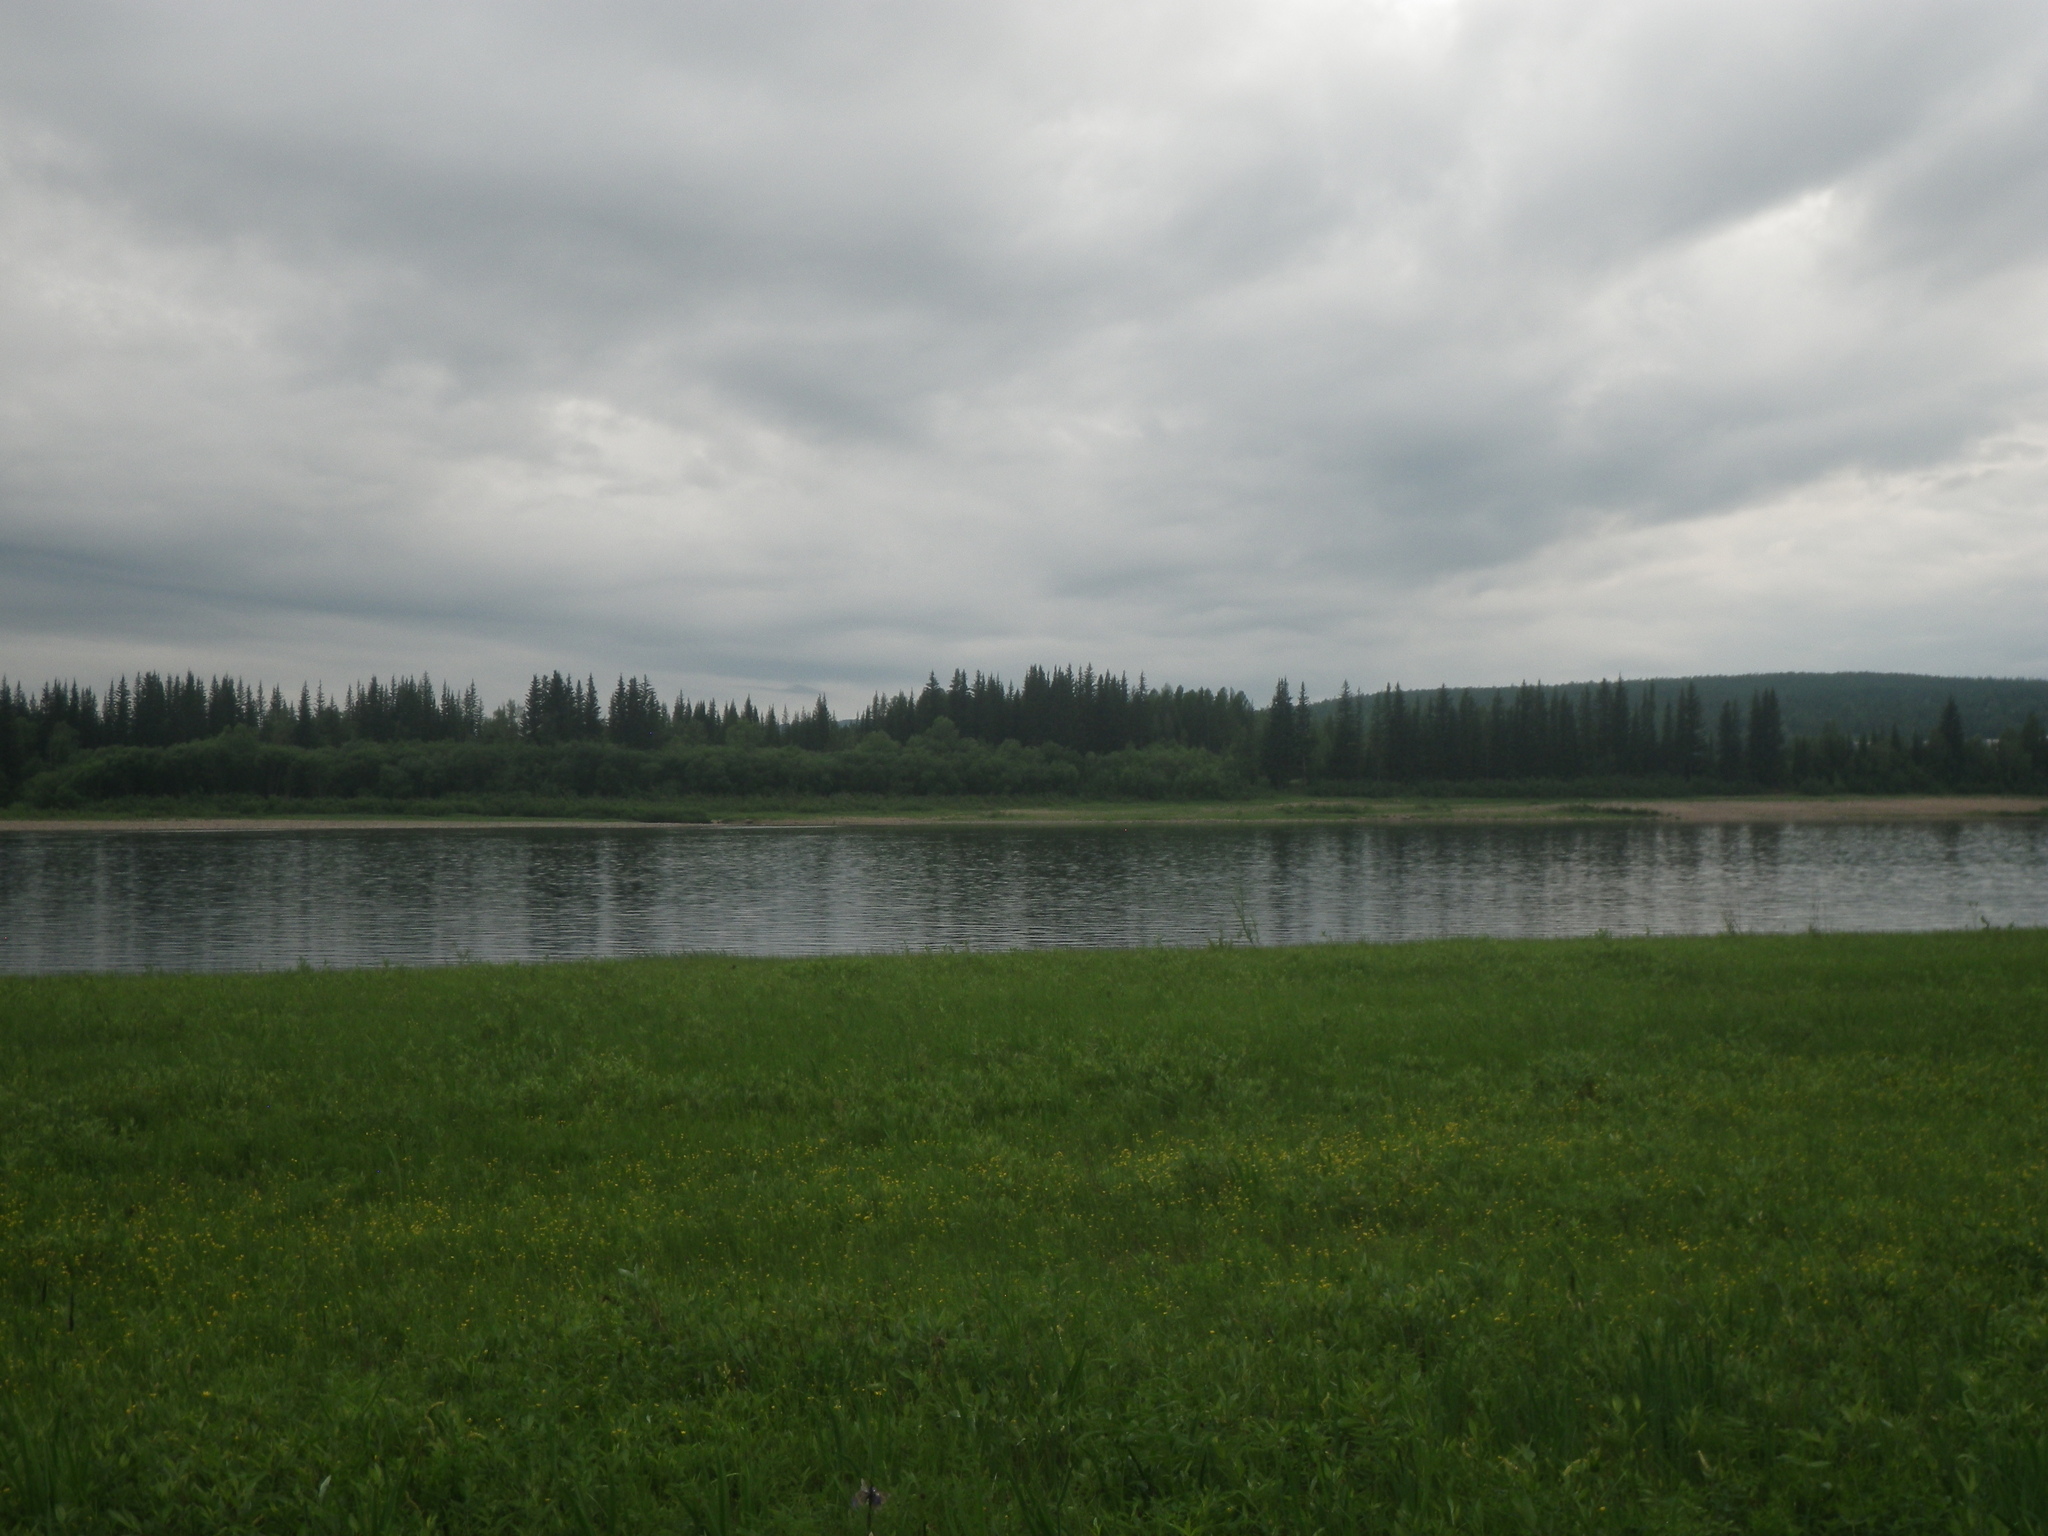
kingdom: Plantae
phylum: Tracheophyta
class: Magnoliopsida
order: Ranunculales
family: Ranunculaceae
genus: Anemonastrum
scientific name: Anemonastrum dichotomum
